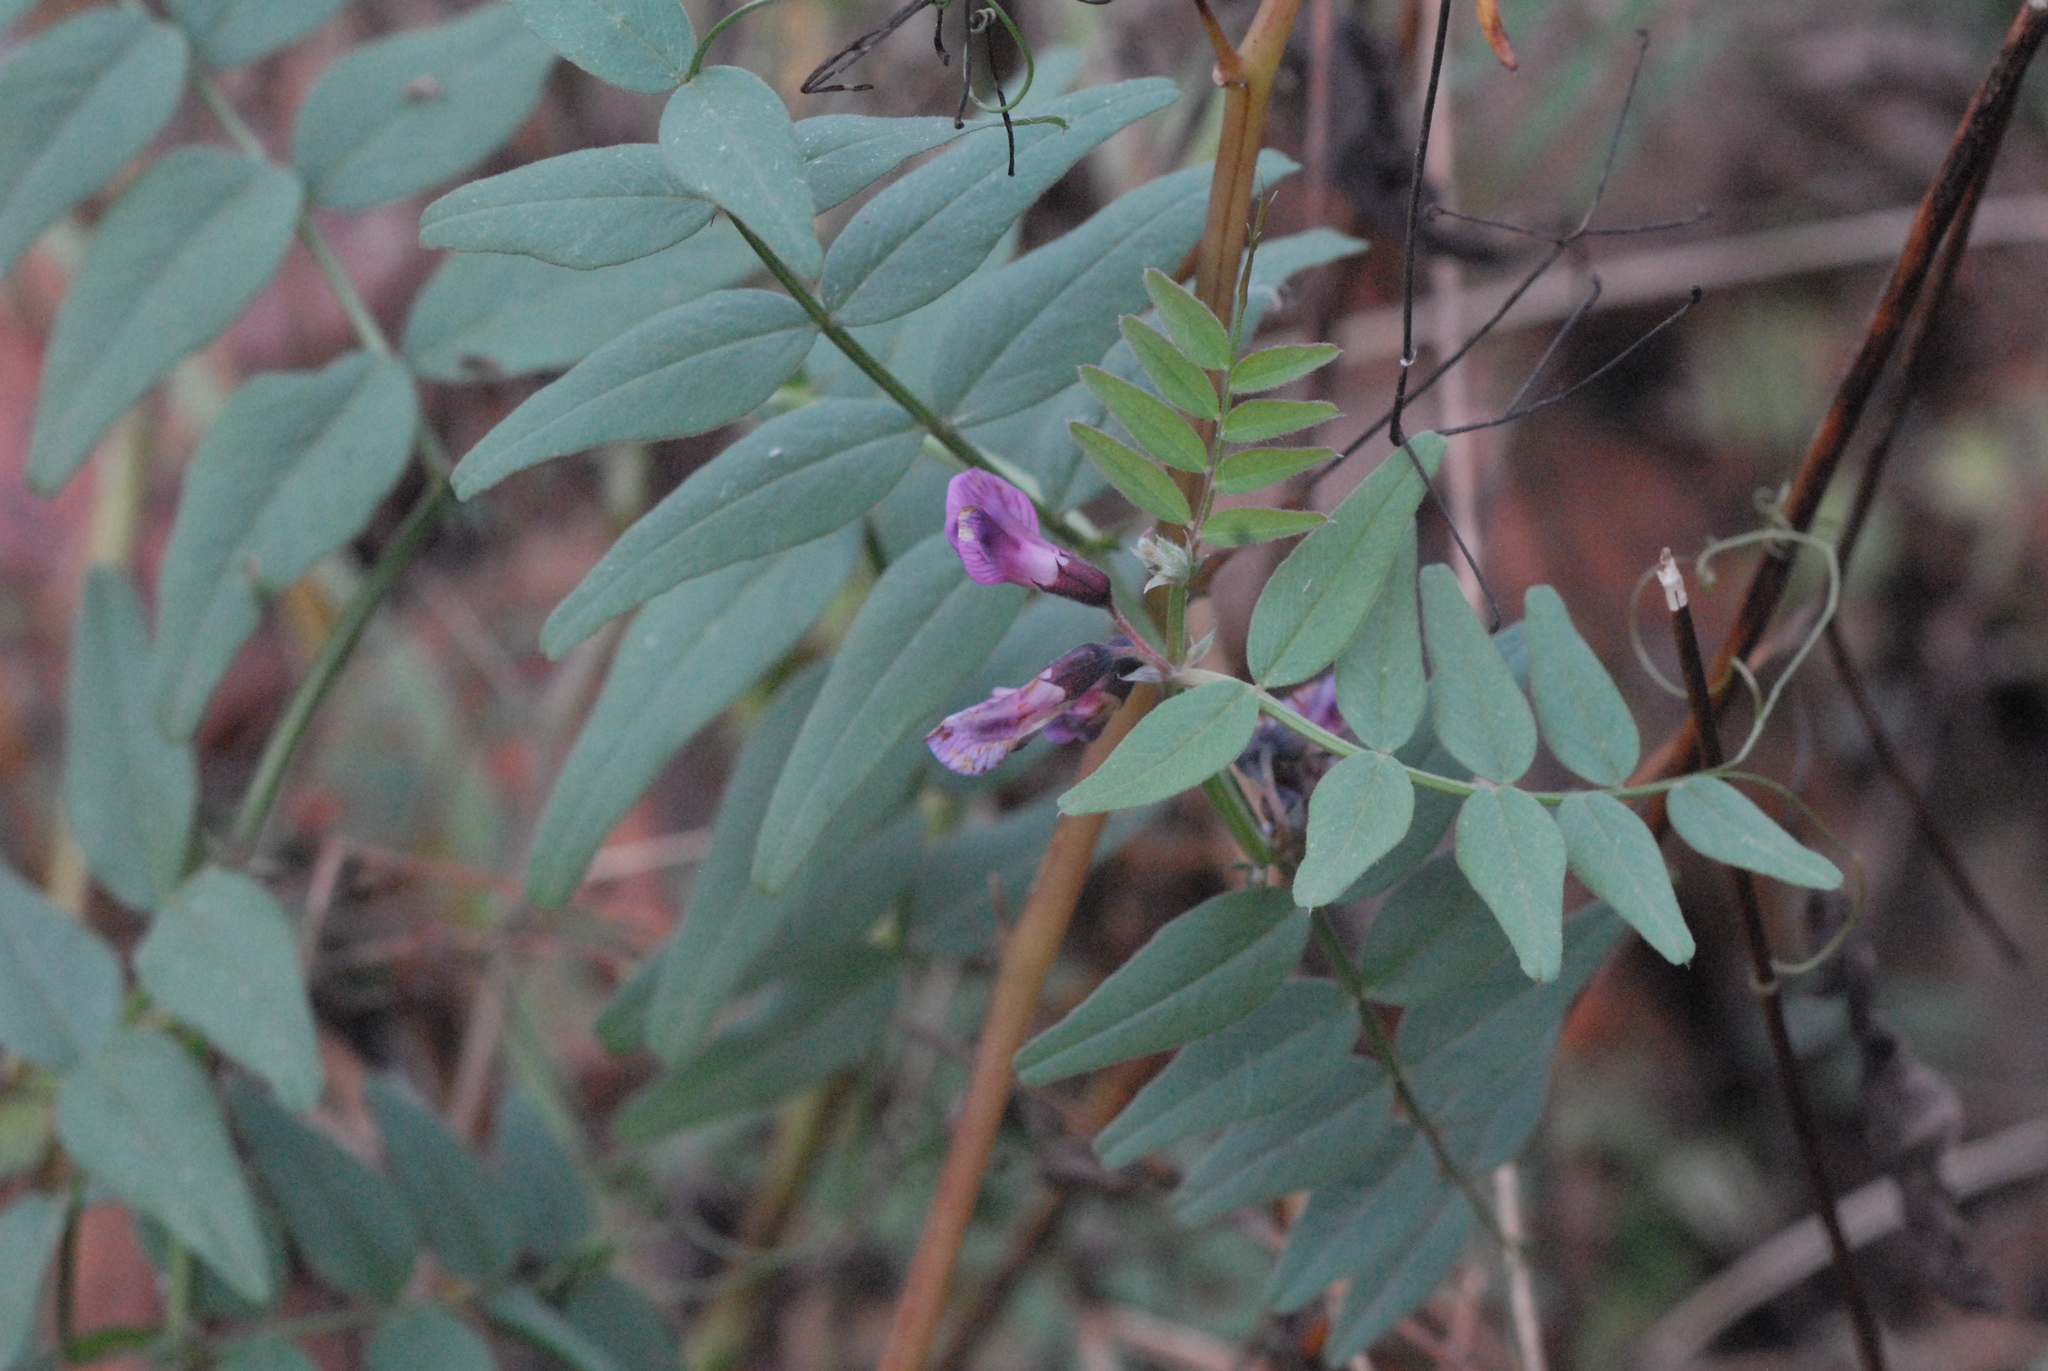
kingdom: Plantae
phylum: Tracheophyta
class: Magnoliopsida
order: Fabales
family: Fabaceae
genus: Vicia
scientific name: Vicia sepium
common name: Bush vetch
